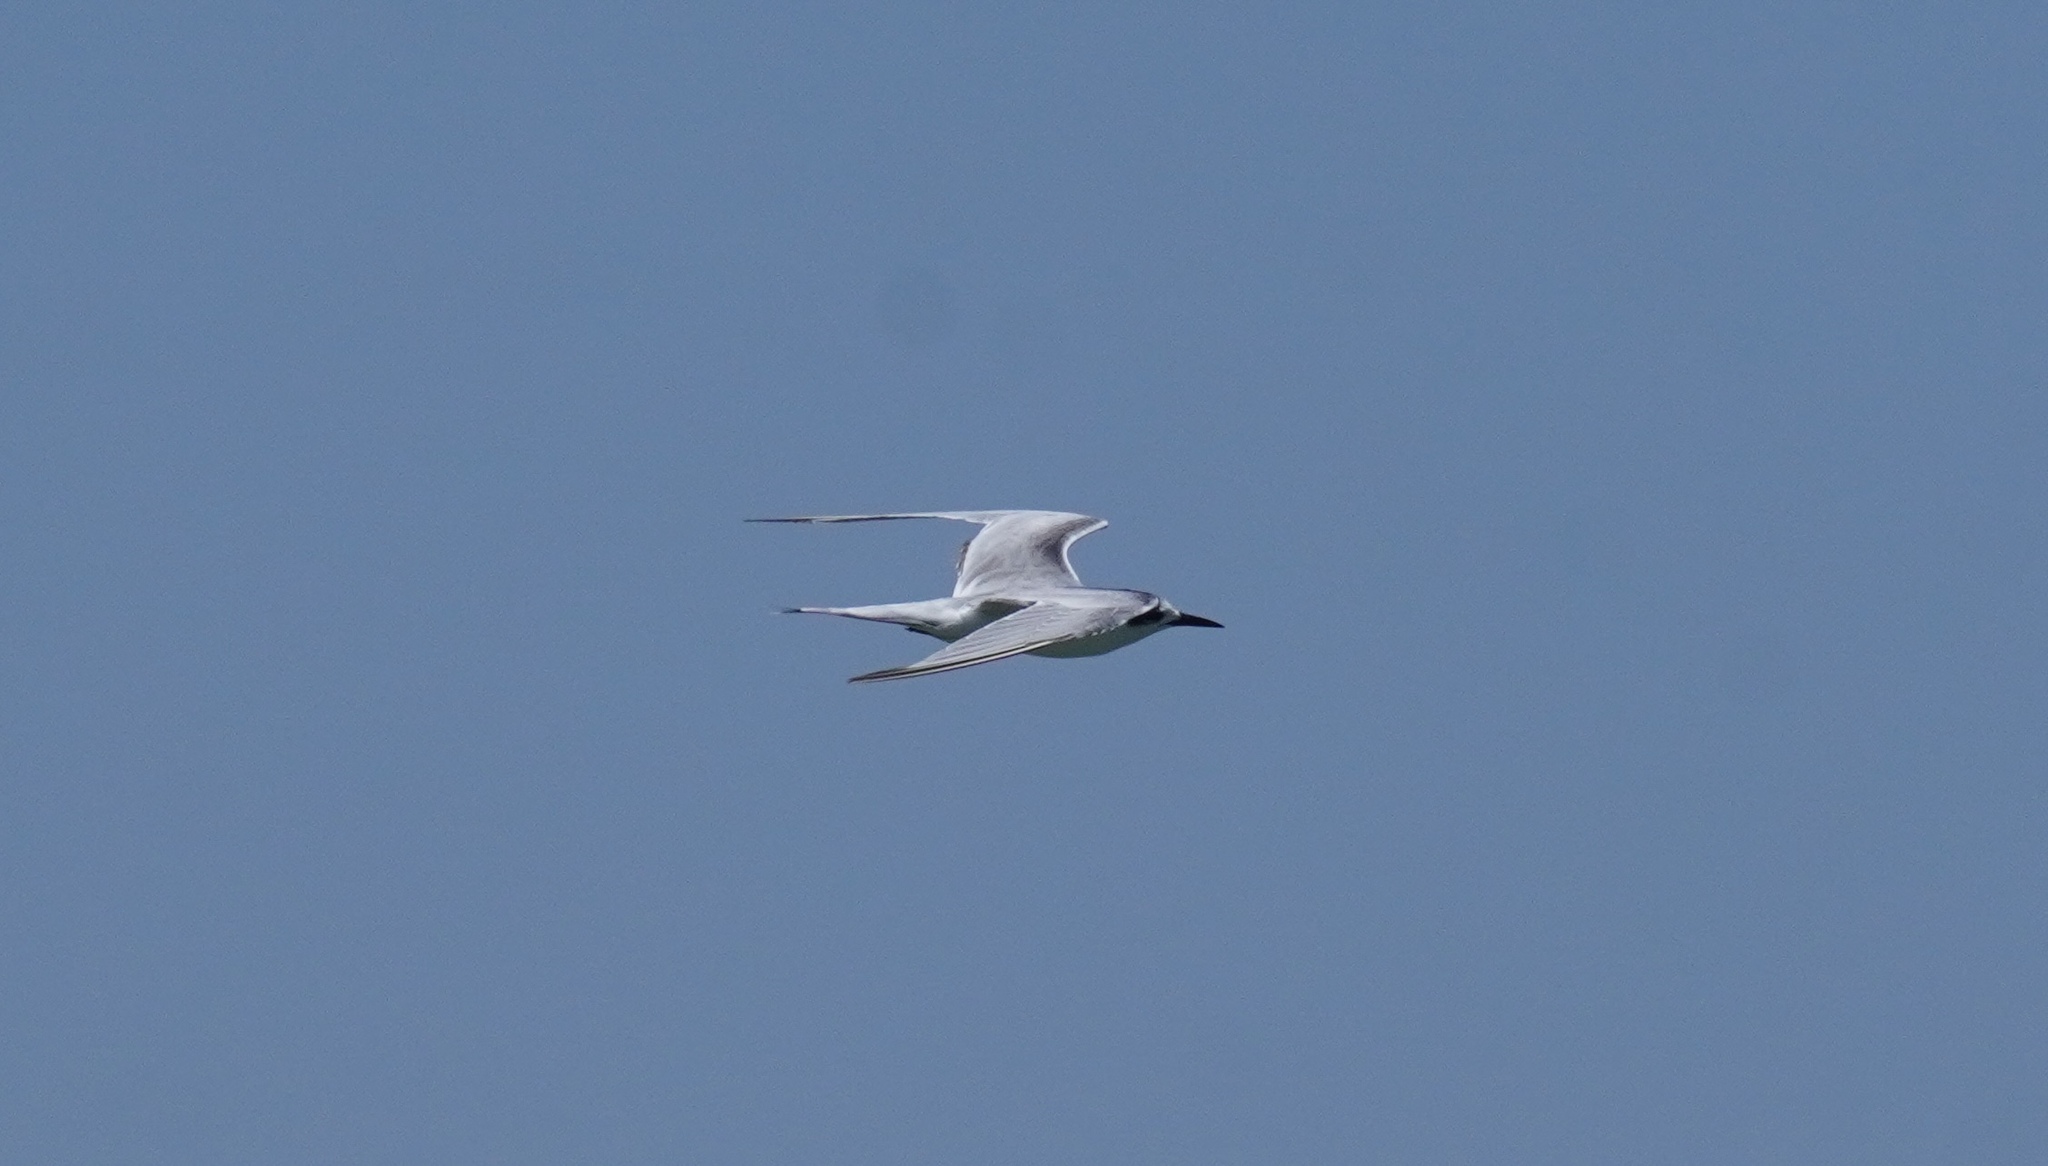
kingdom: Animalia
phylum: Chordata
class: Aves
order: Charadriiformes
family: Laridae
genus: Sterna
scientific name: Sterna hirundo
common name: Common tern
